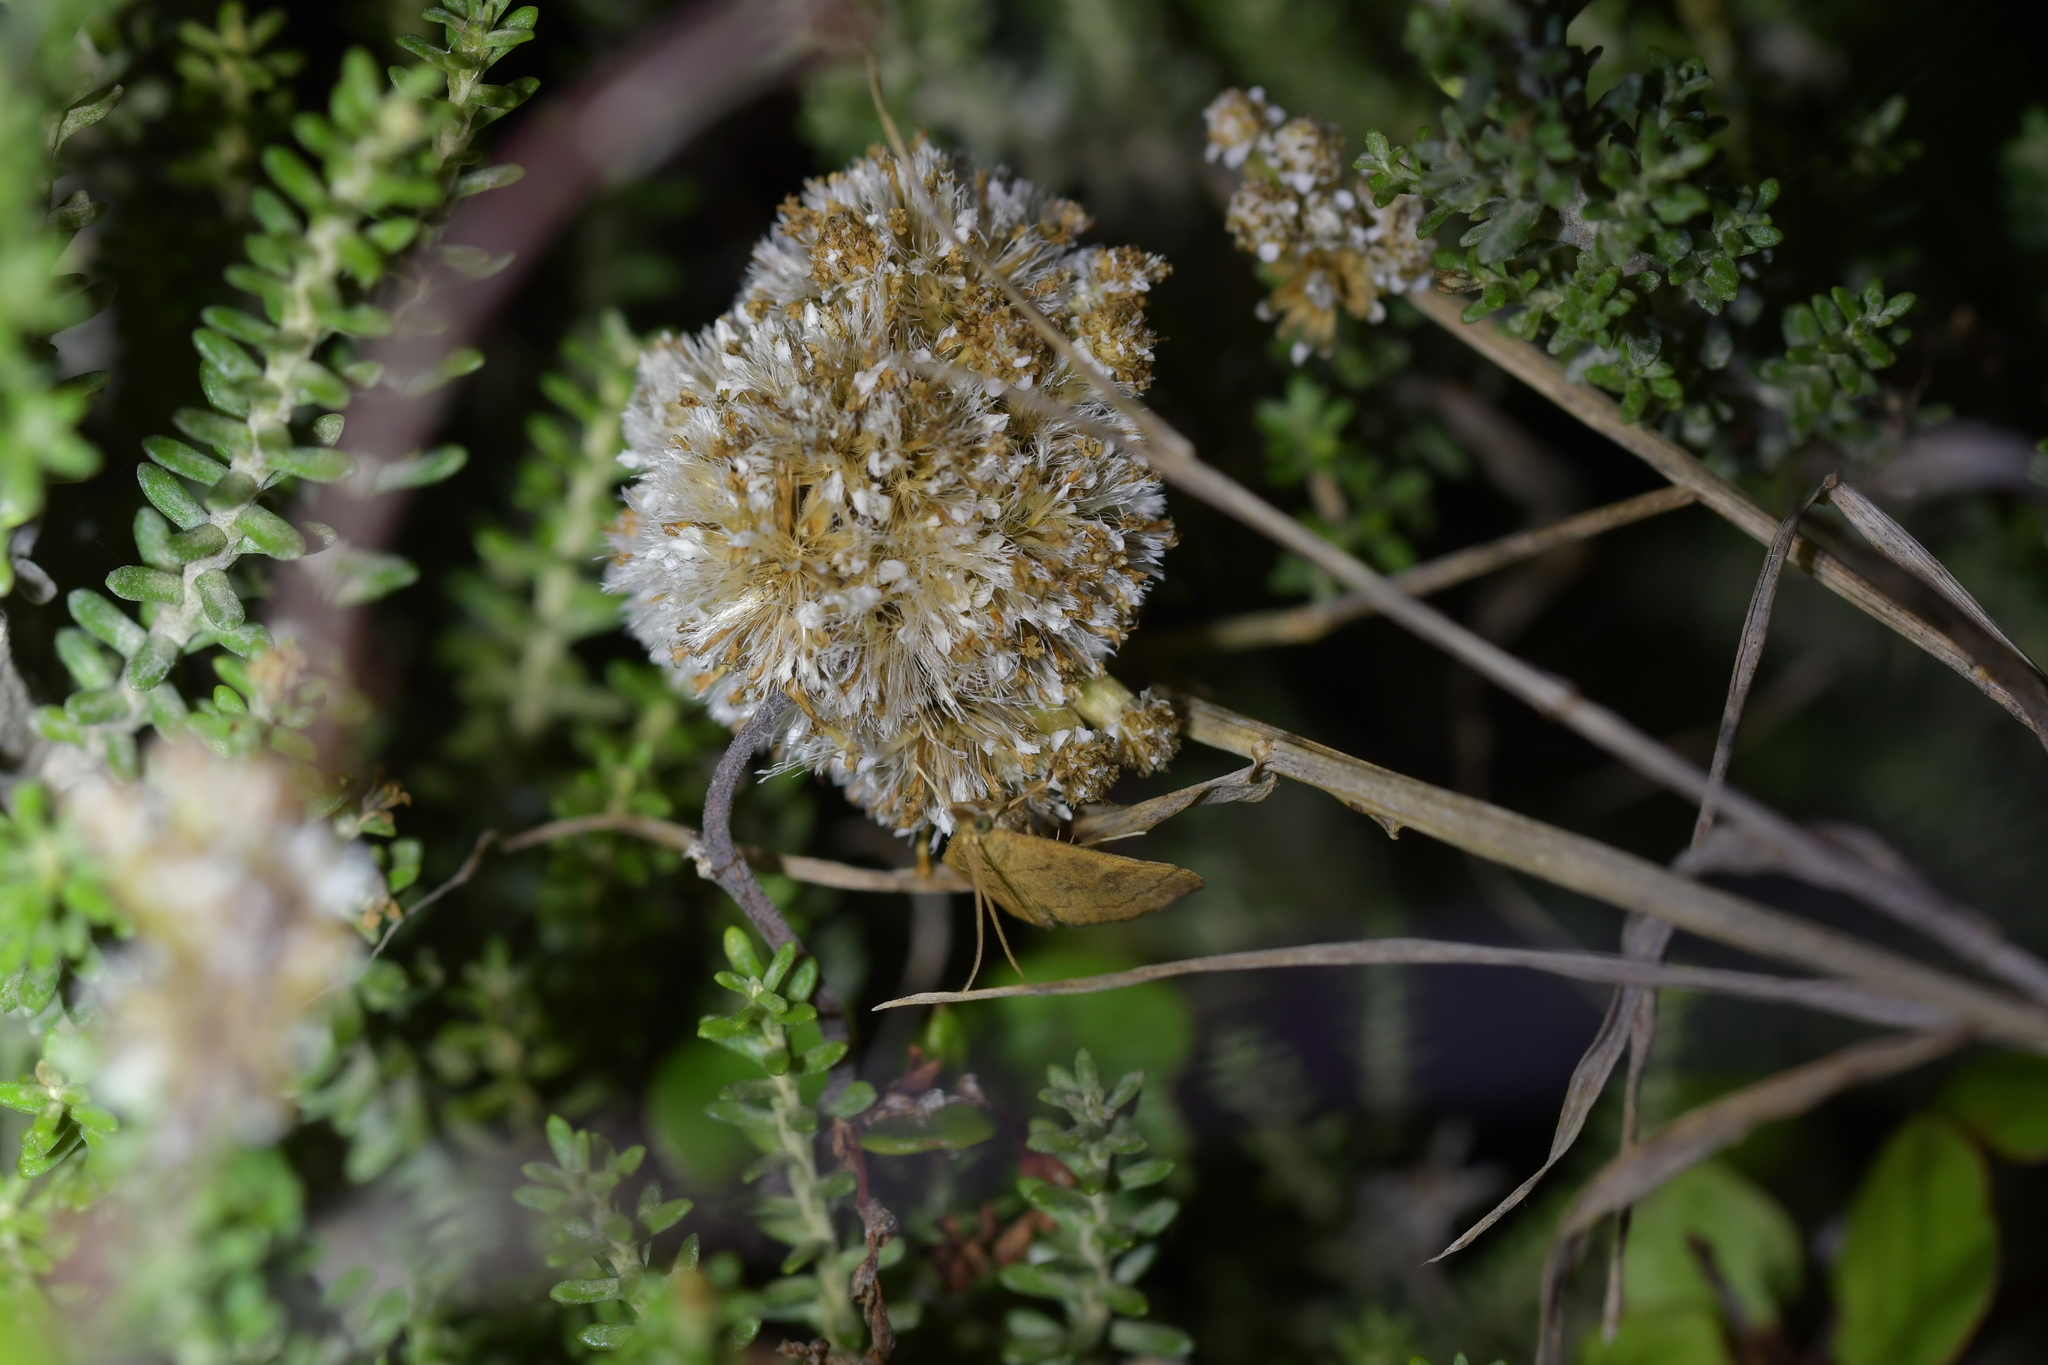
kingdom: Animalia
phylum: Arthropoda
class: Insecta
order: Lepidoptera
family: Crambidae
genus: Udea
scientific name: Udea Mnesictena flavidalis
